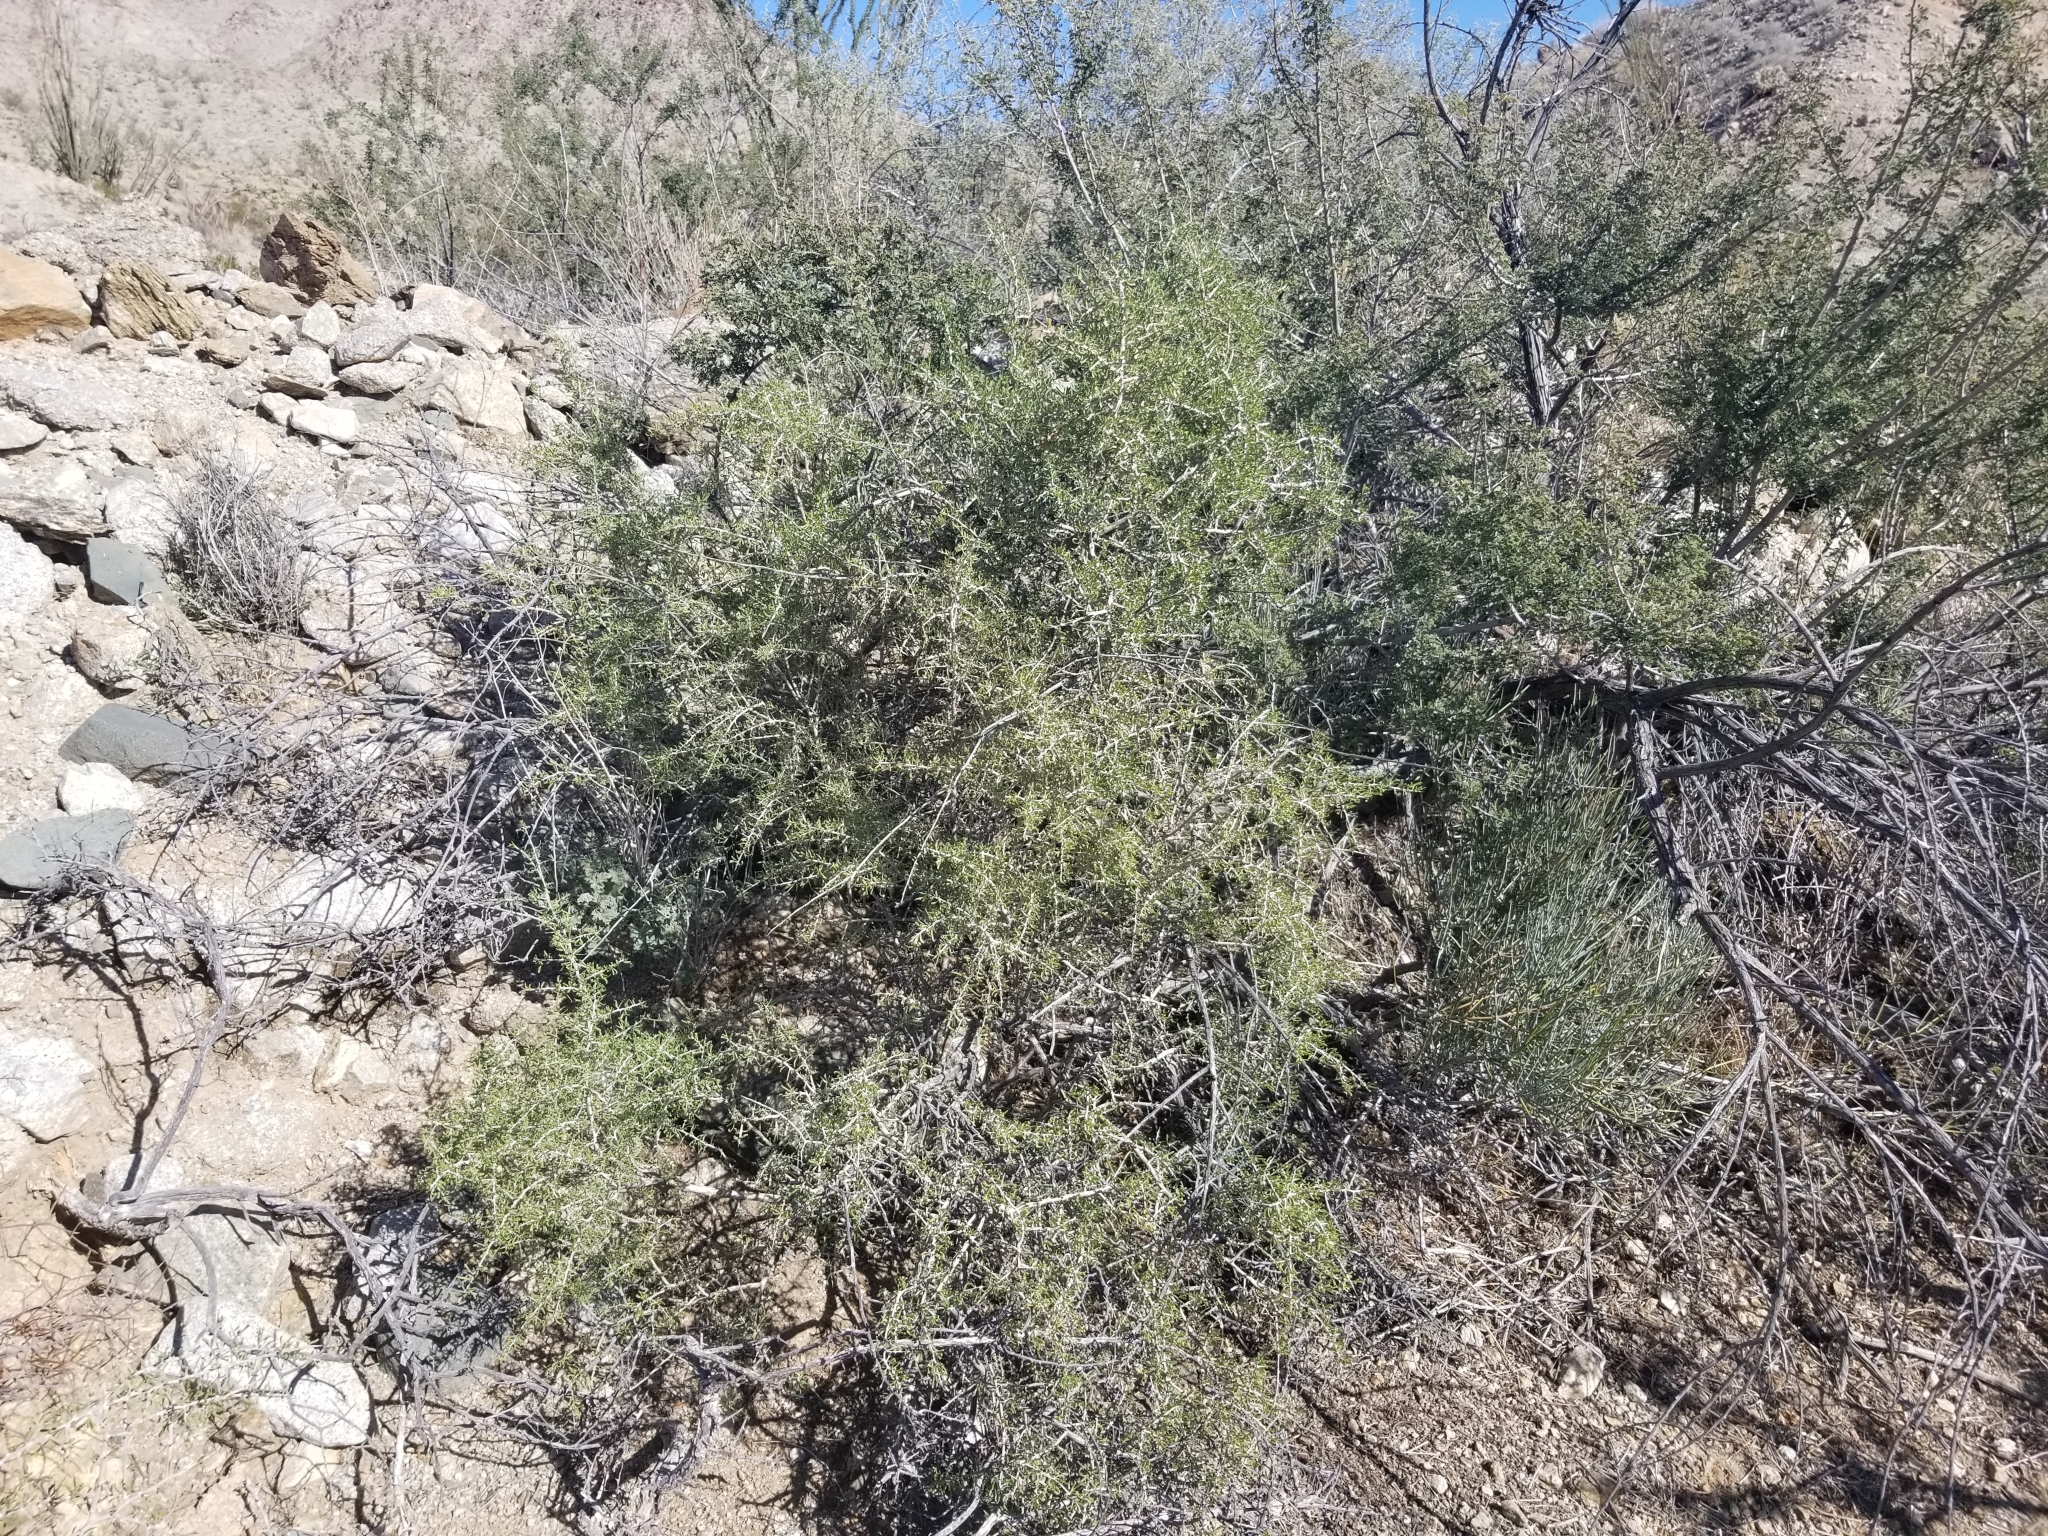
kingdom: Plantae
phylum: Tracheophyta
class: Magnoliopsida
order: Solanales
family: Solanaceae
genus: Lycium
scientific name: Lycium andersonii
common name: Water-jacket
